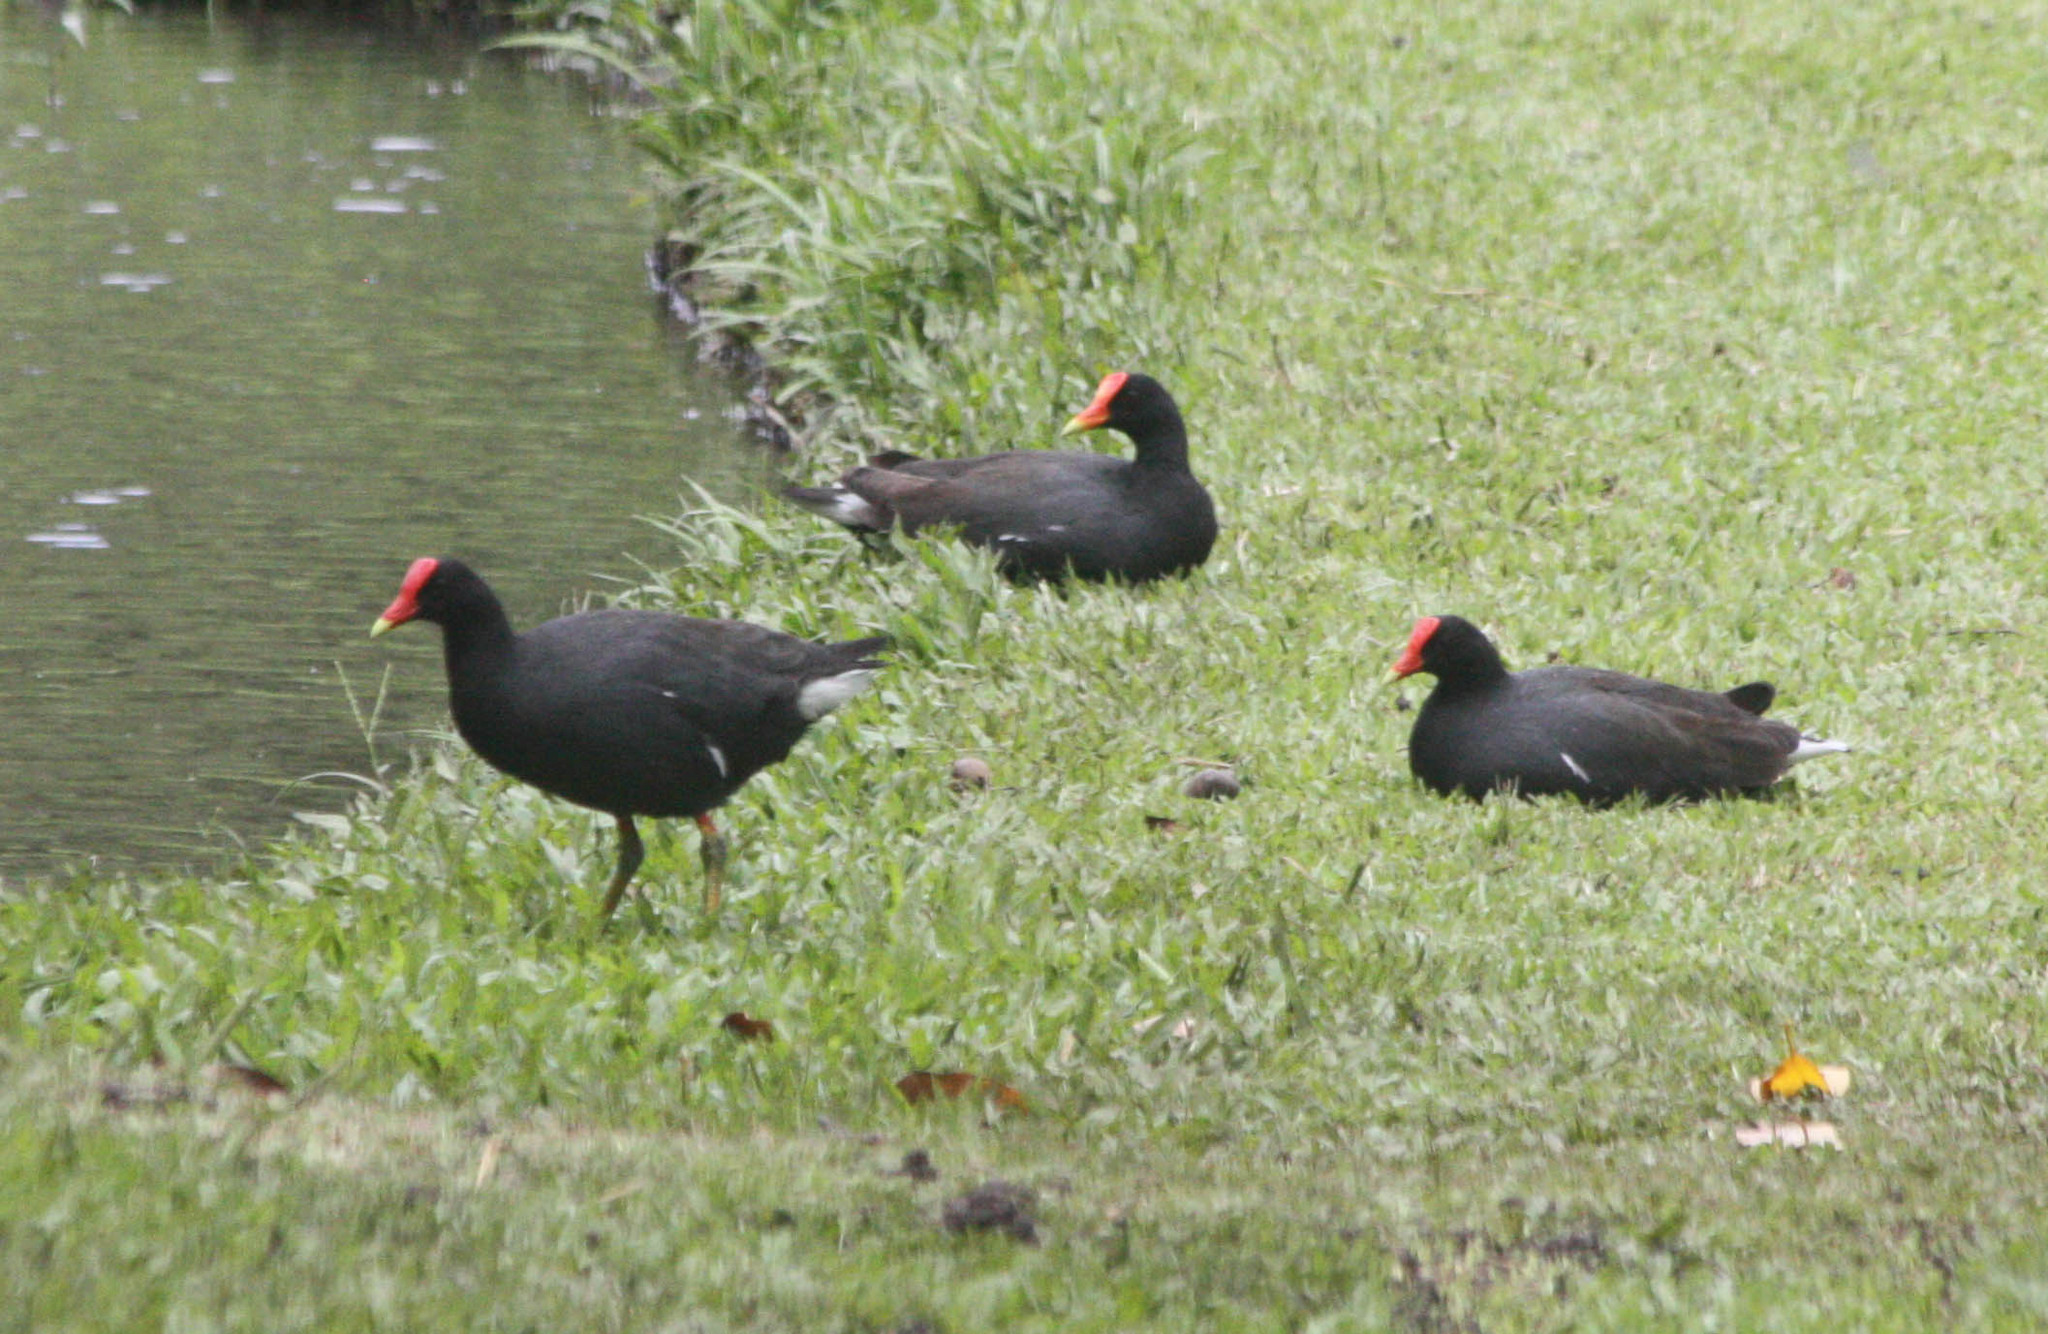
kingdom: Animalia
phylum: Chordata
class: Aves
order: Gruiformes
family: Rallidae
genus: Gallinula
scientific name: Gallinula chloropus
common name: Common moorhen
